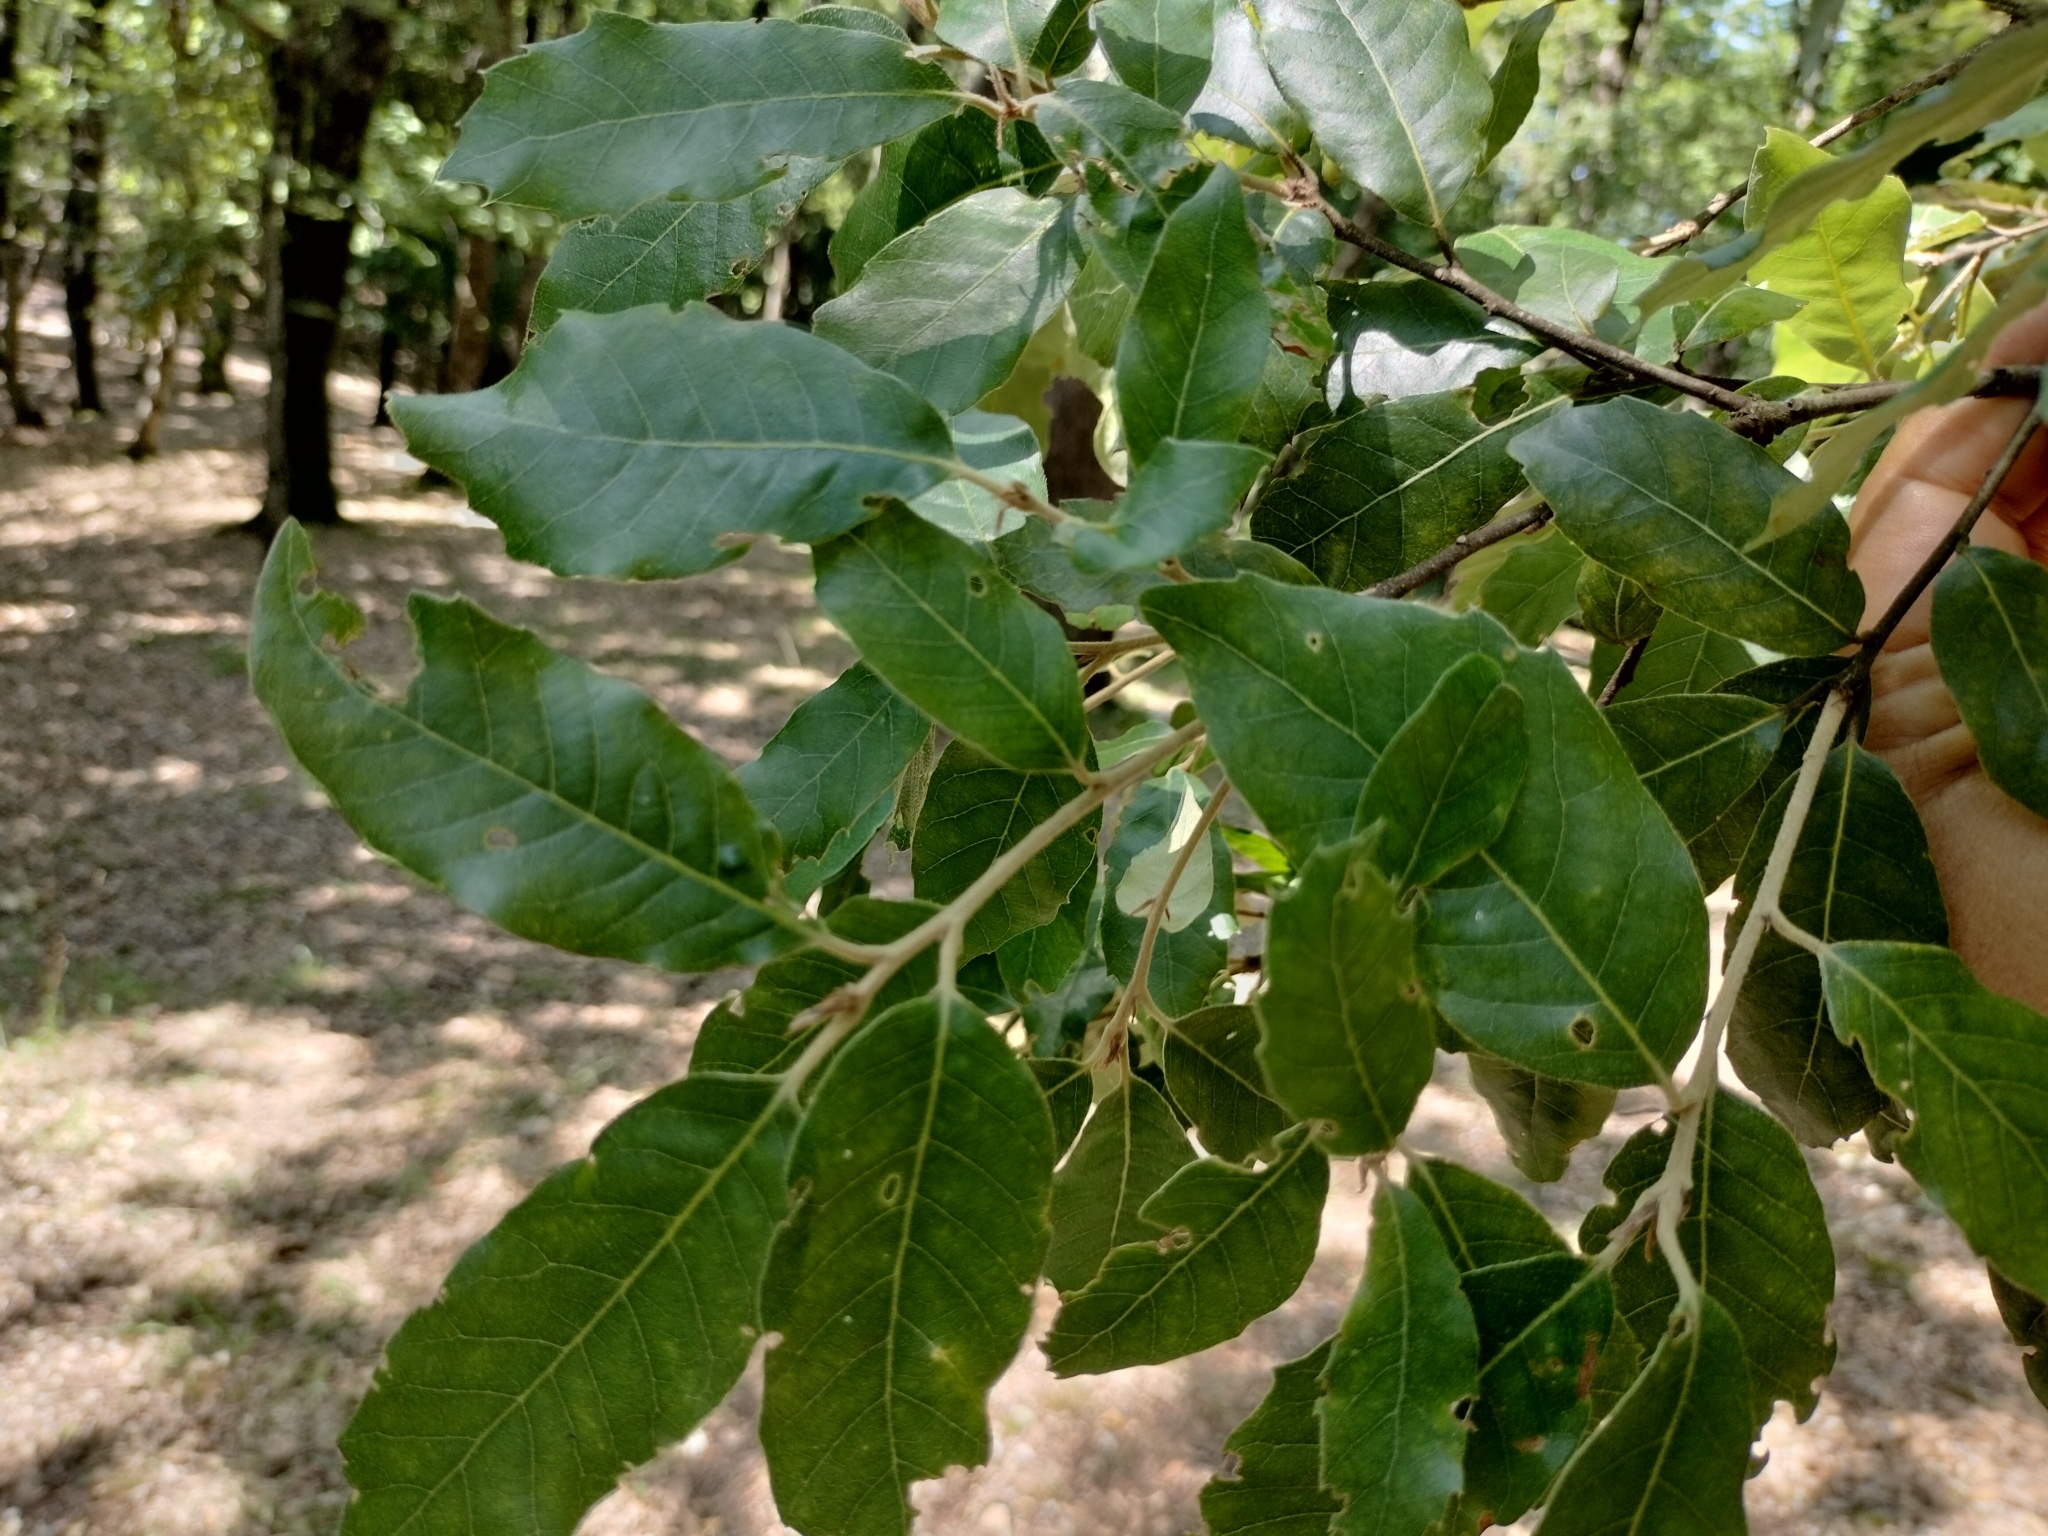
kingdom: Plantae
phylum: Tracheophyta
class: Magnoliopsida
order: Fagales
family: Fagaceae
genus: Quercus
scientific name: Quercus ilex
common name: Evergreen oak
